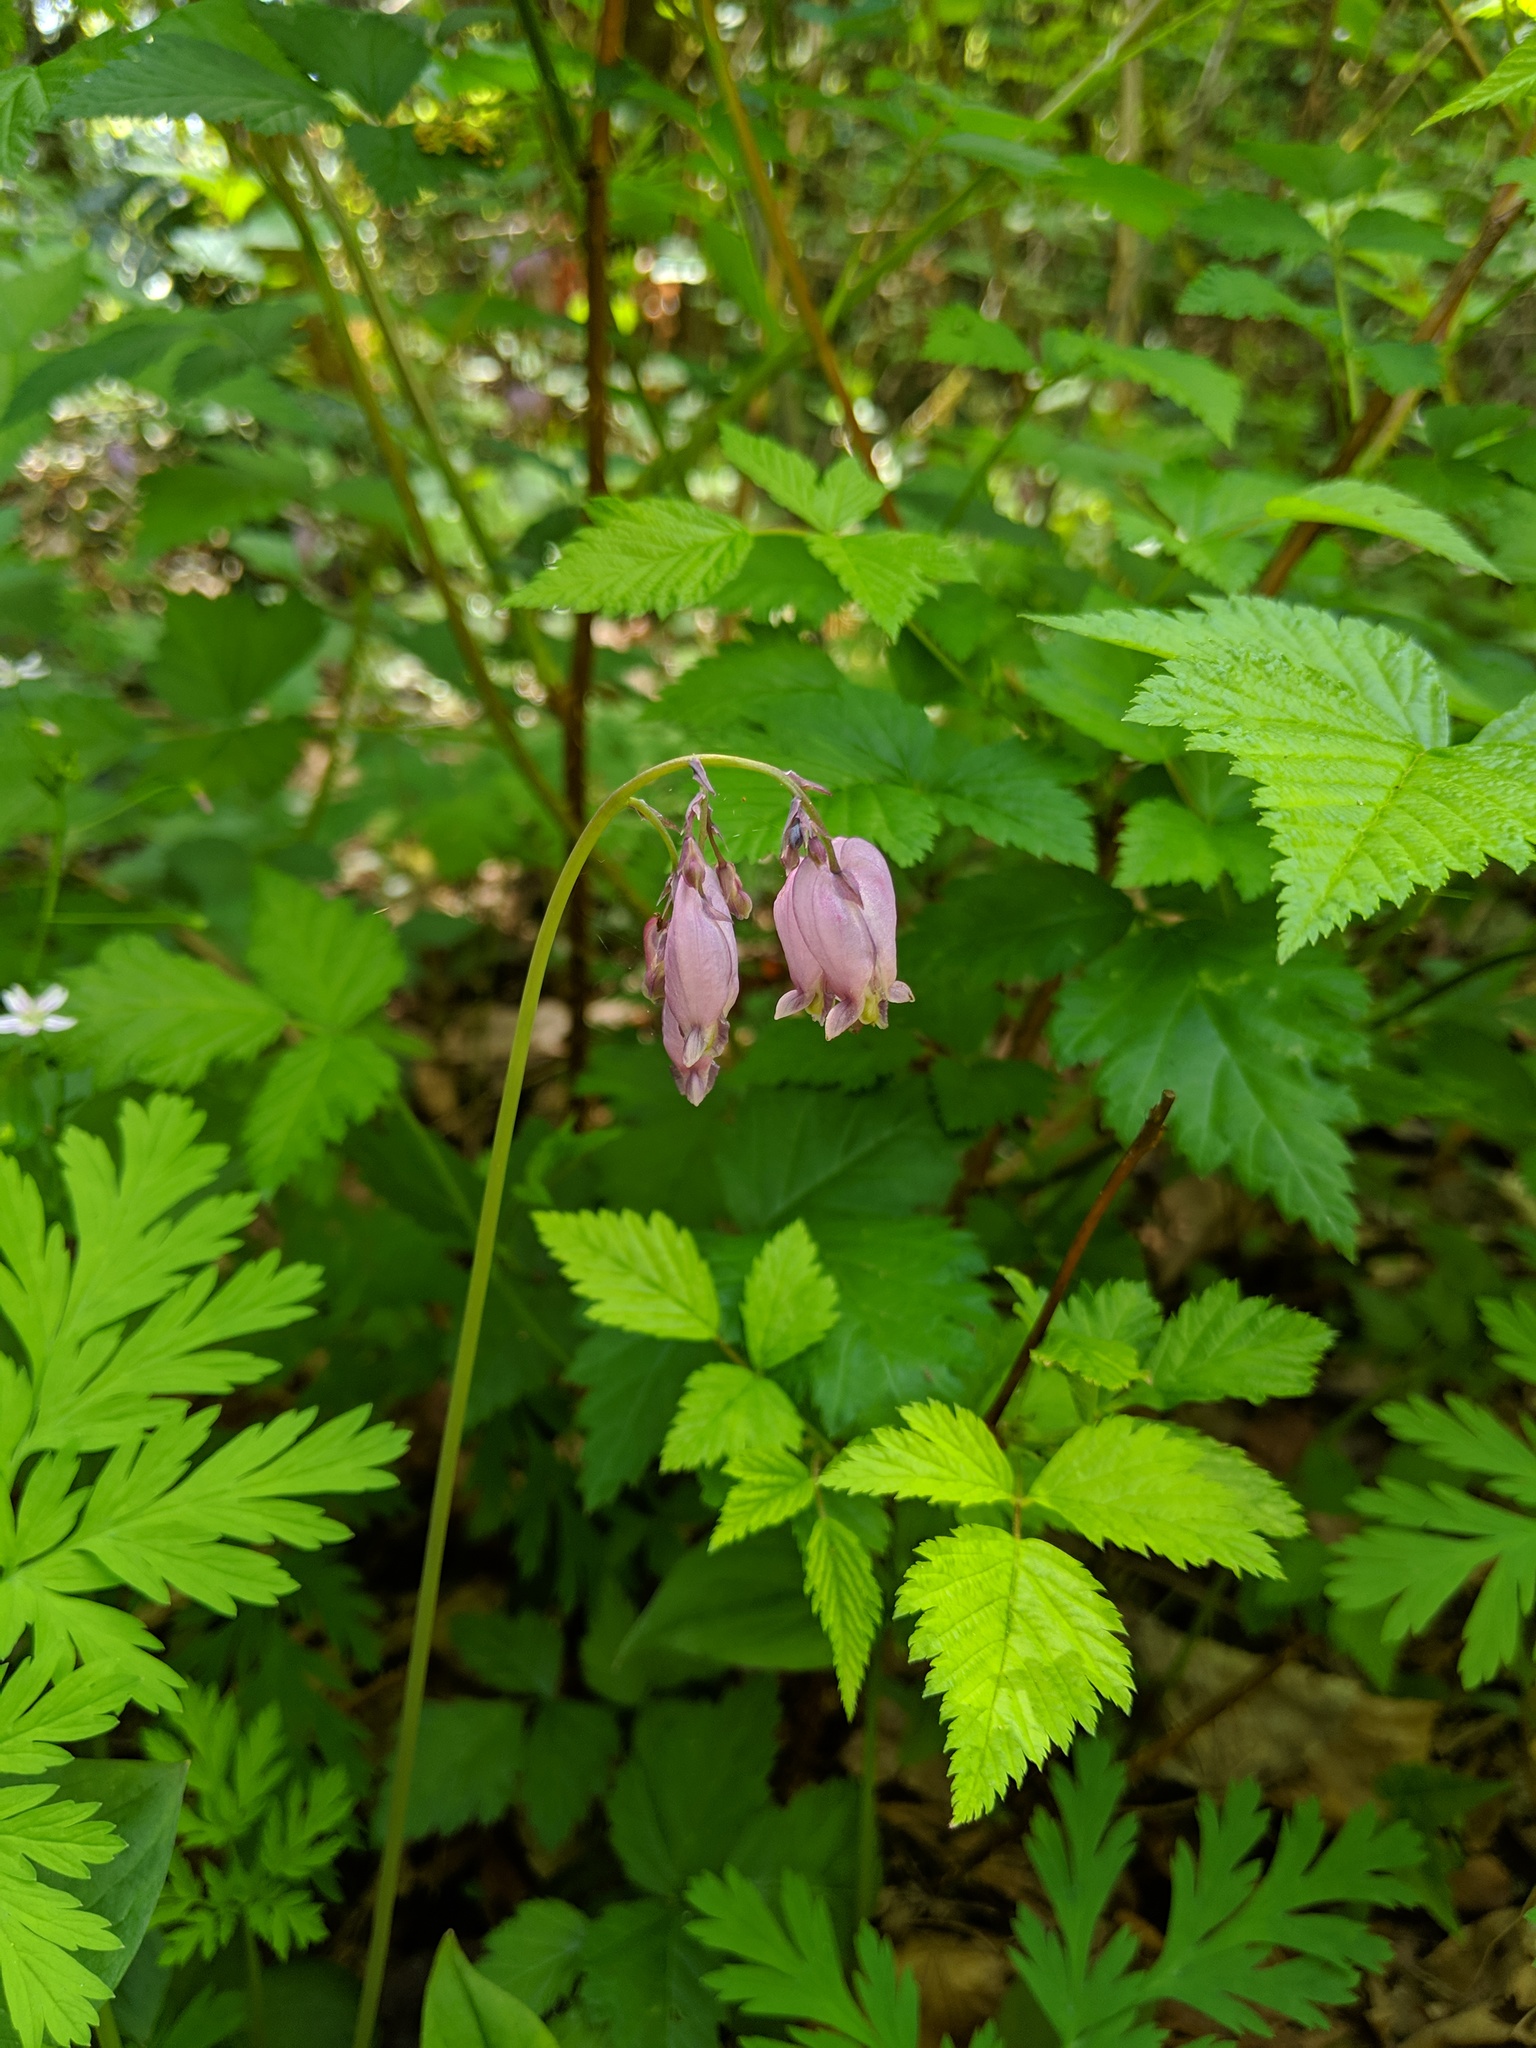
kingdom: Plantae
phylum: Tracheophyta
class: Magnoliopsida
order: Ranunculales
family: Papaveraceae
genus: Dicentra
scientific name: Dicentra formosa
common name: Bleeding-heart
